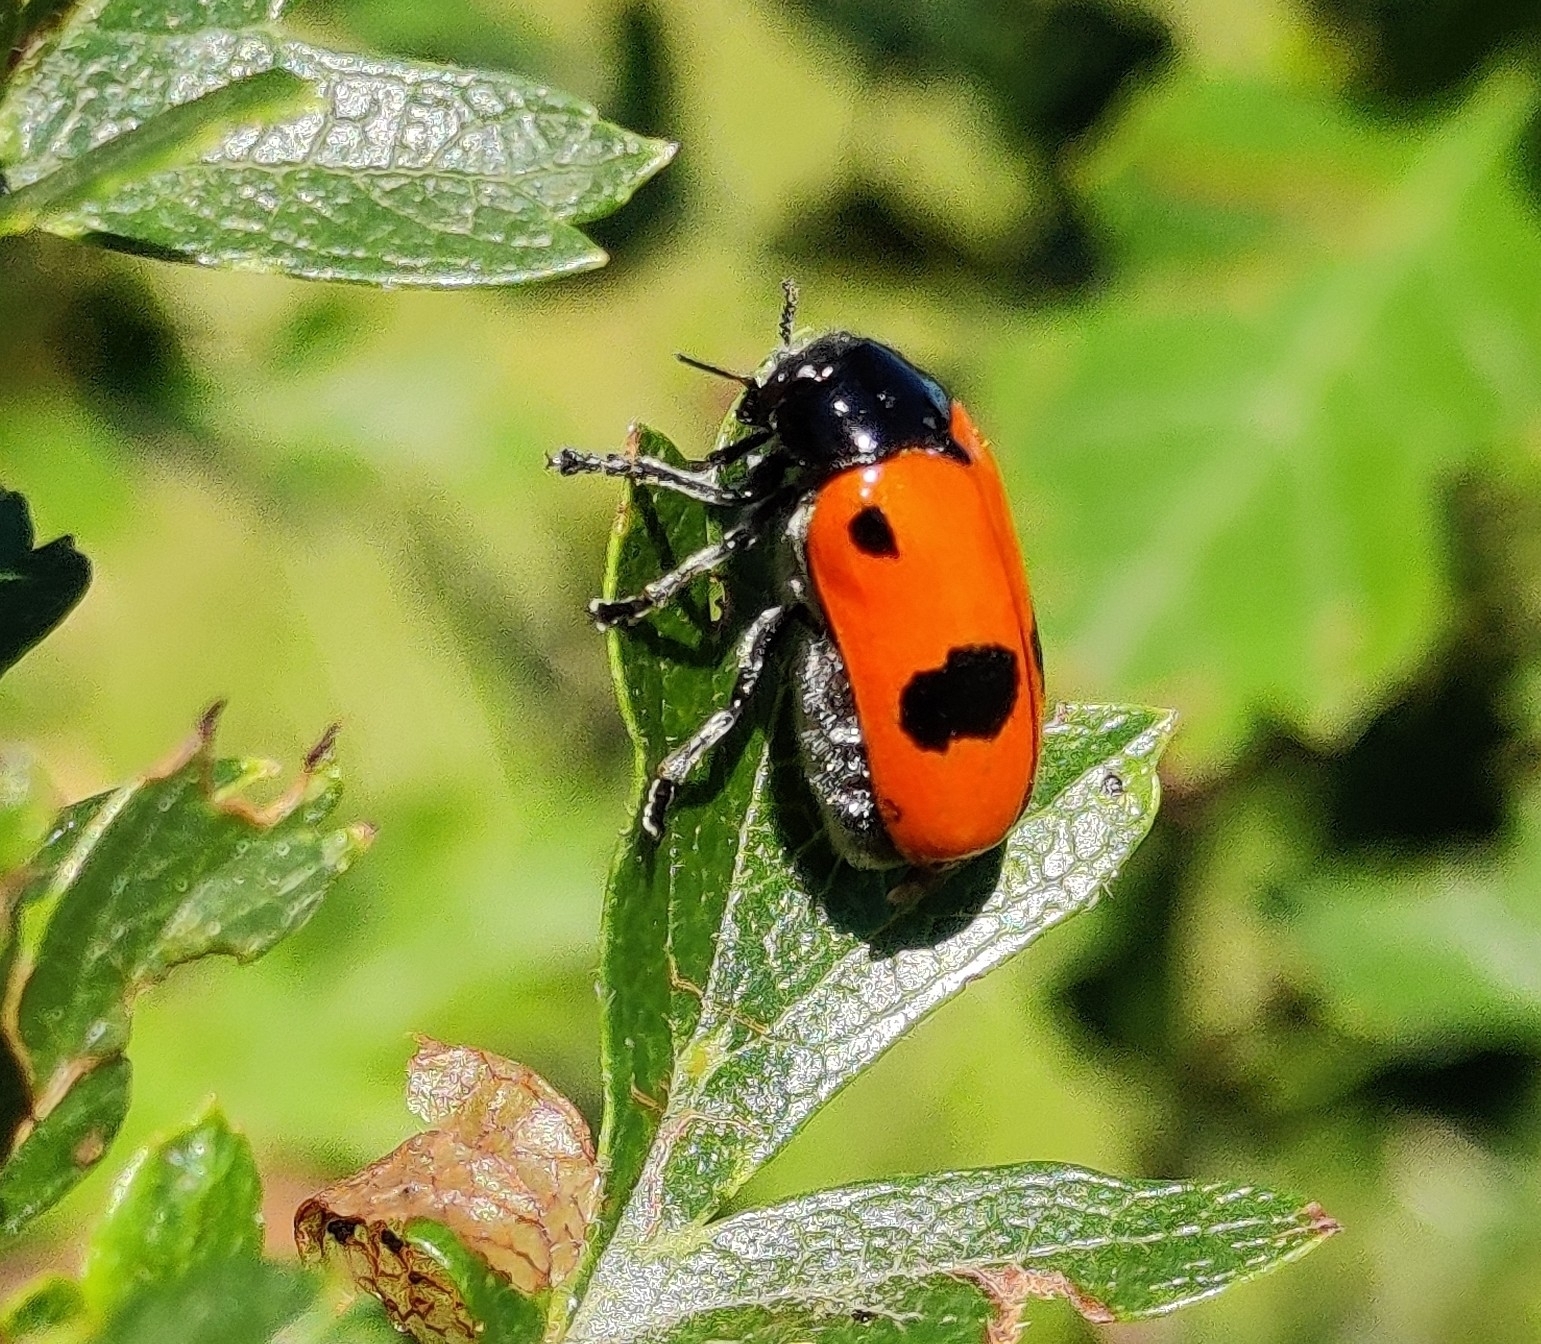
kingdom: Animalia
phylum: Arthropoda
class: Insecta
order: Coleoptera
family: Chrysomelidae
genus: Clytra
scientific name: Clytra laeviuscula
